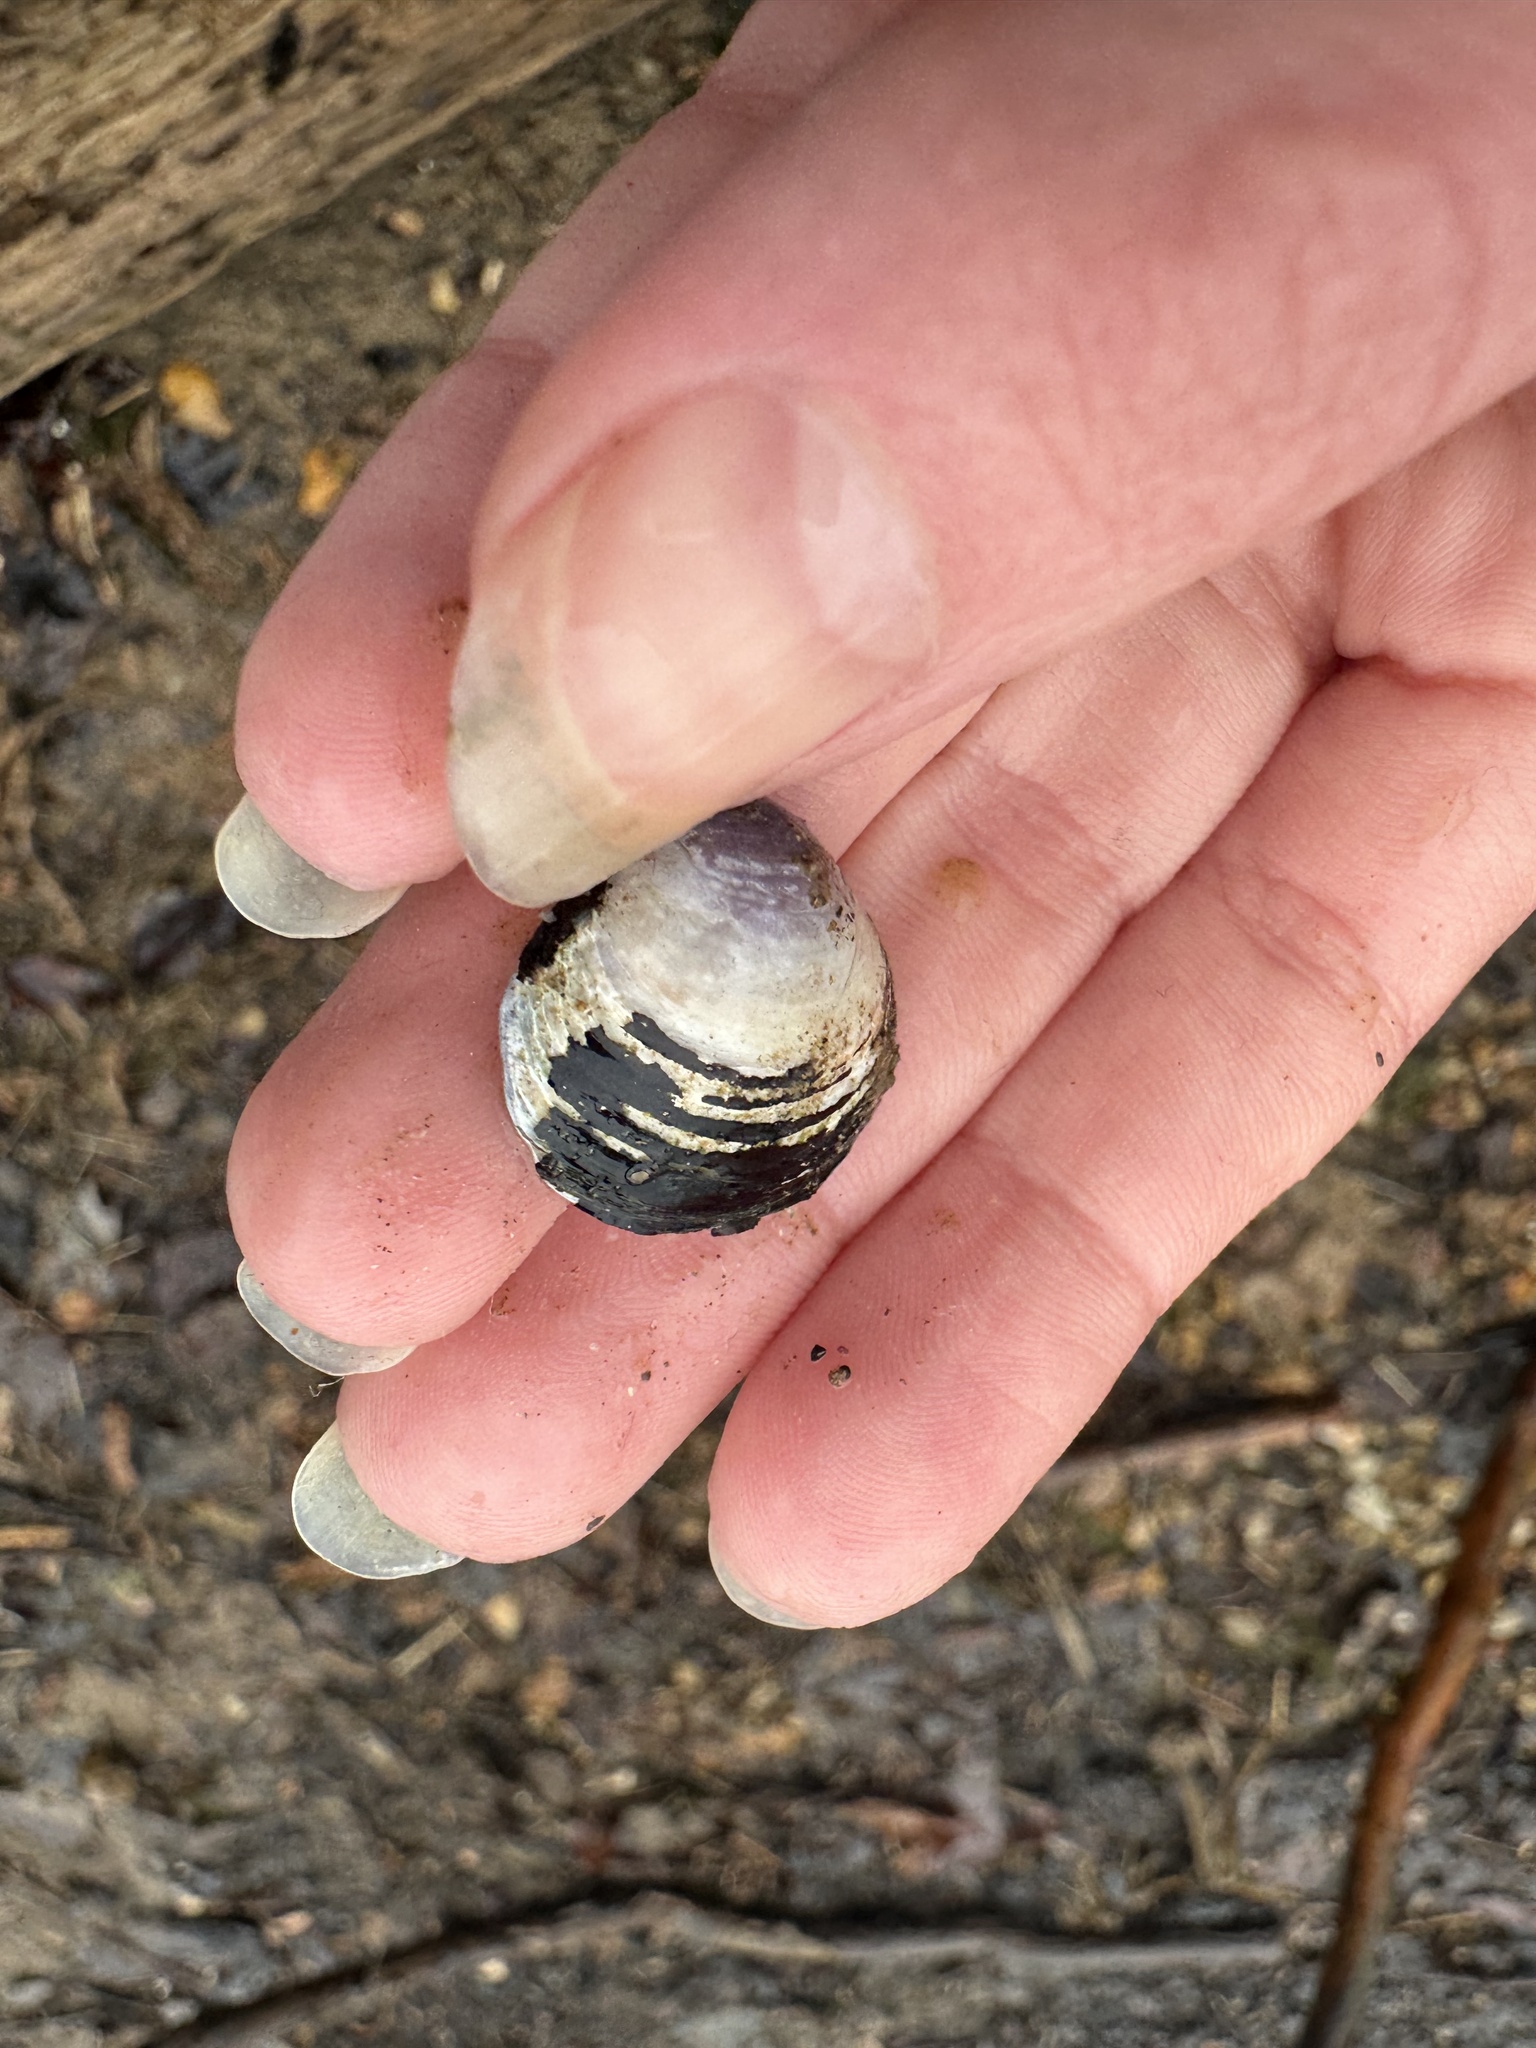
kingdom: Animalia
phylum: Mollusca
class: Bivalvia
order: Venerida
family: Cyrenidae
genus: Corbicula
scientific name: Corbicula fluminea
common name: Asian clam
